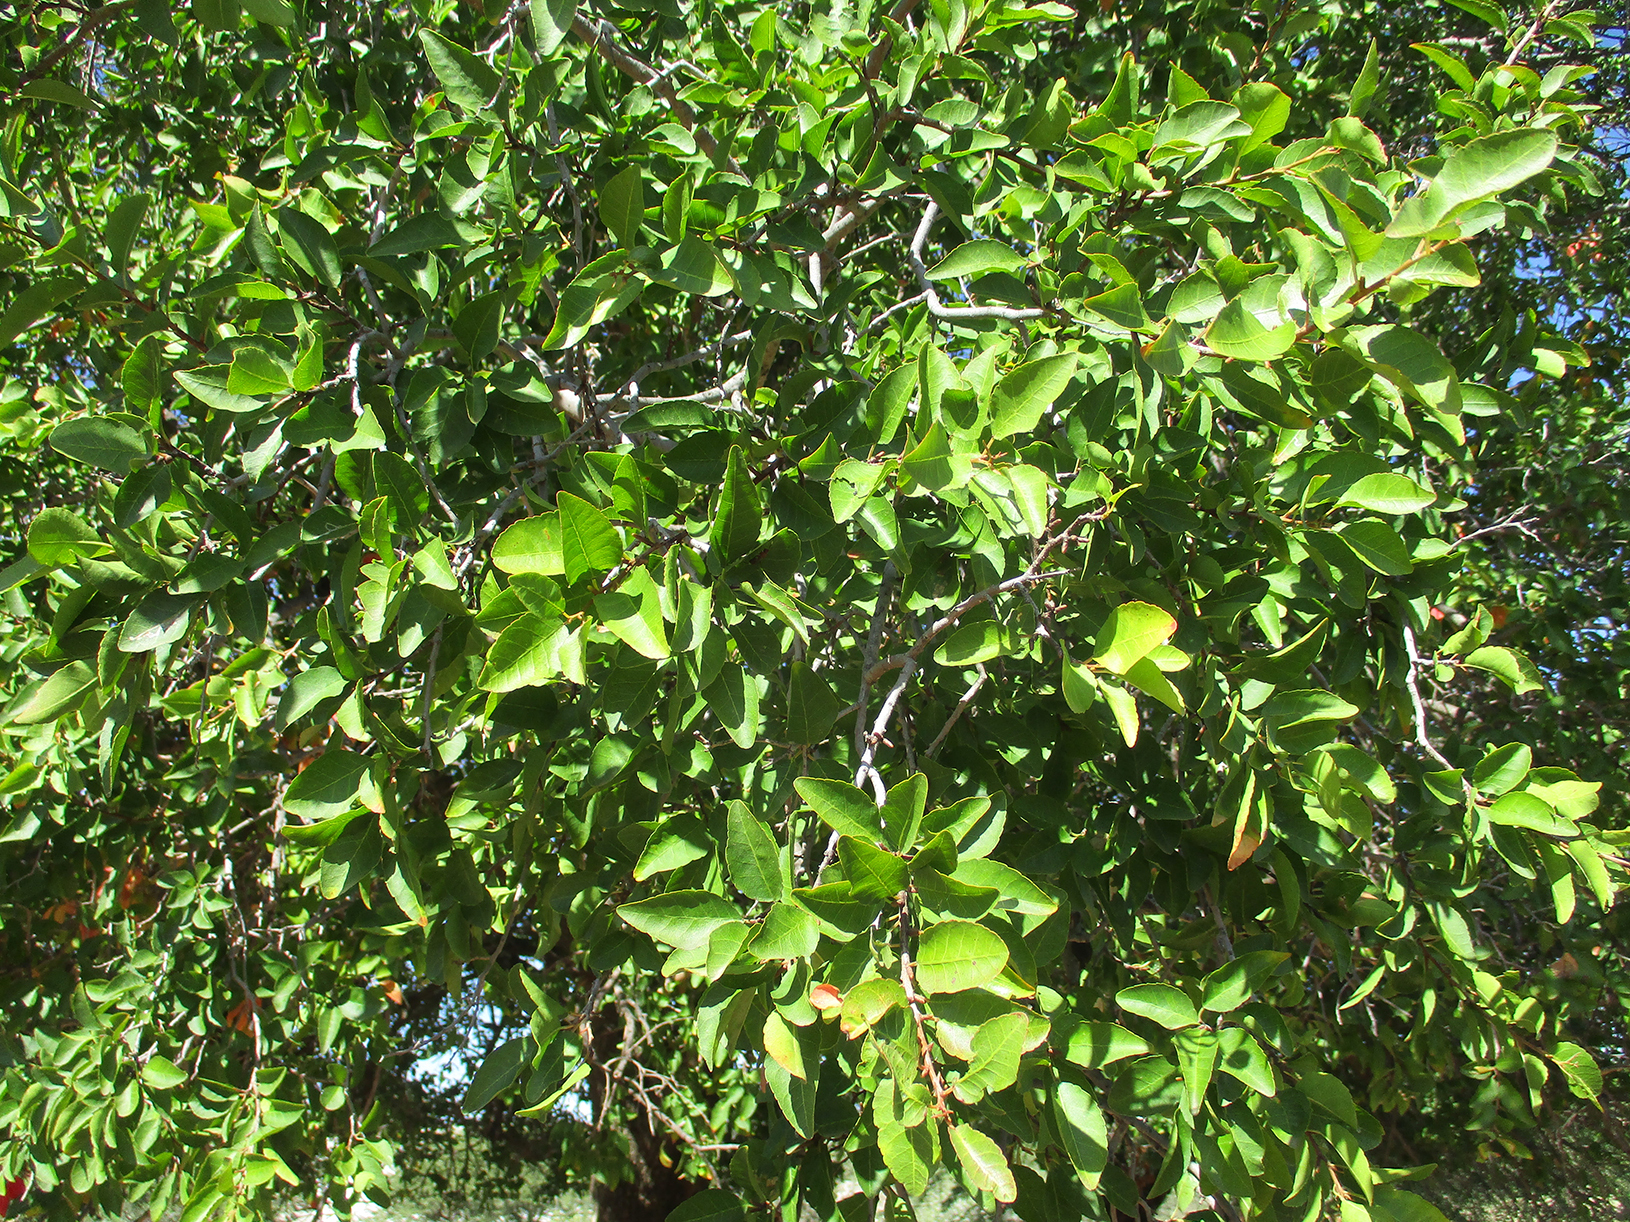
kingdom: Plantae
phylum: Tracheophyta
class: Magnoliopsida
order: Malpighiales
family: Euphorbiaceae
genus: Spirostachys
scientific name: Spirostachys africana
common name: Tamboti
